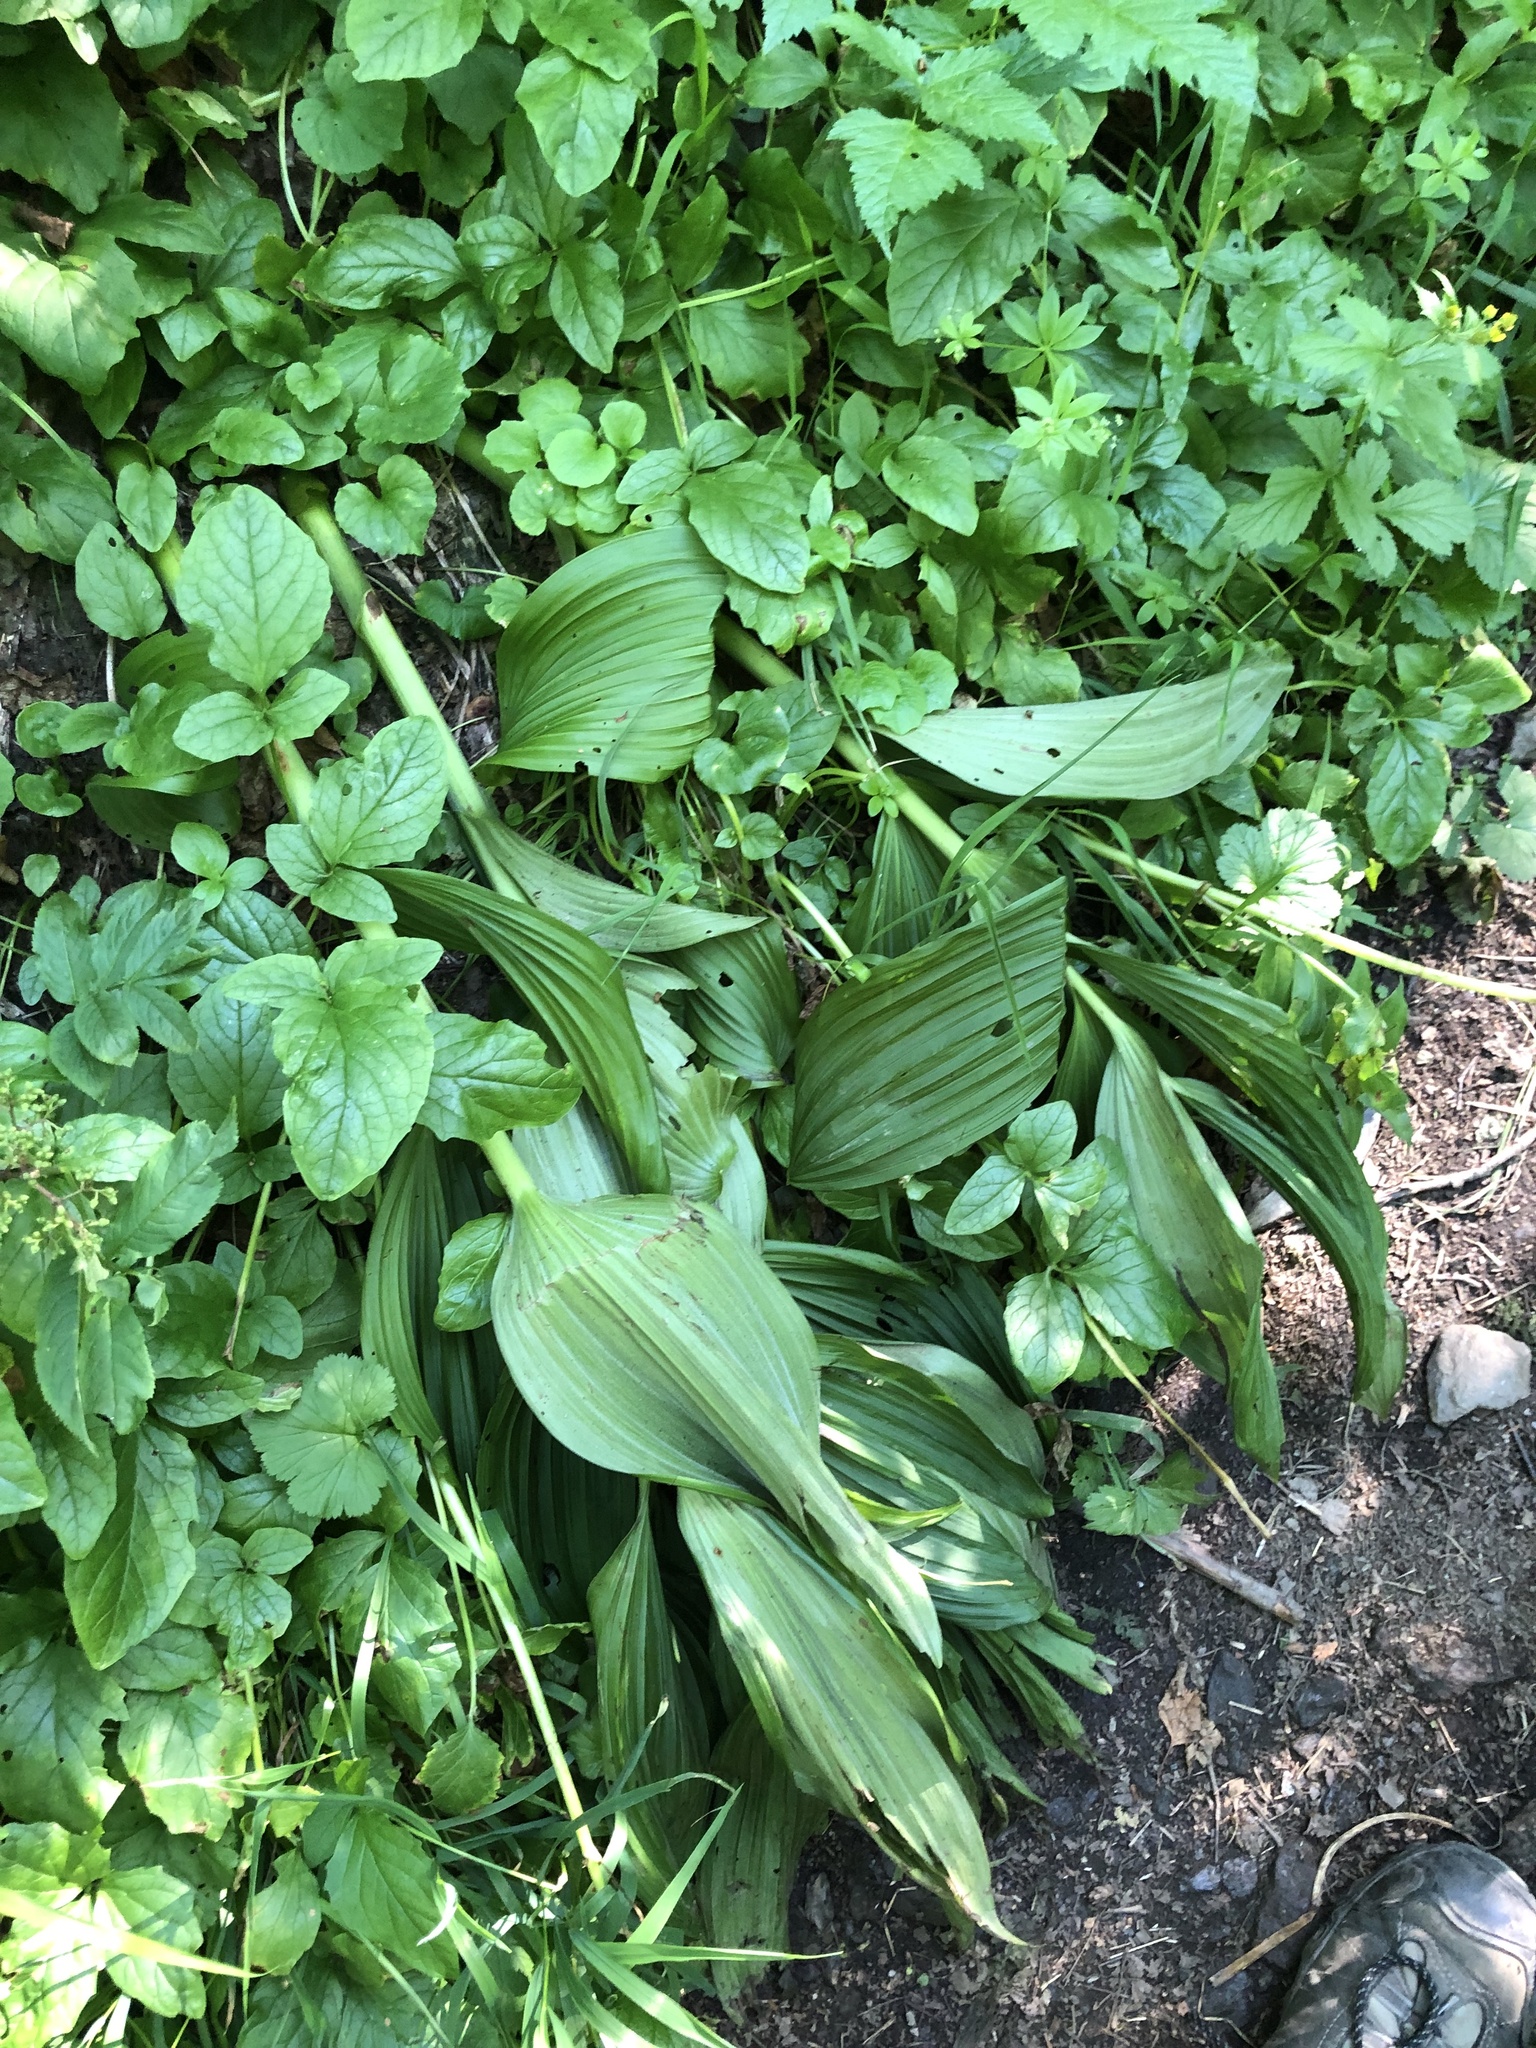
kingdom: Plantae
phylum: Tracheophyta
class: Liliopsida
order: Liliales
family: Melanthiaceae
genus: Veratrum
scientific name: Veratrum viride
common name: American false hellebore
